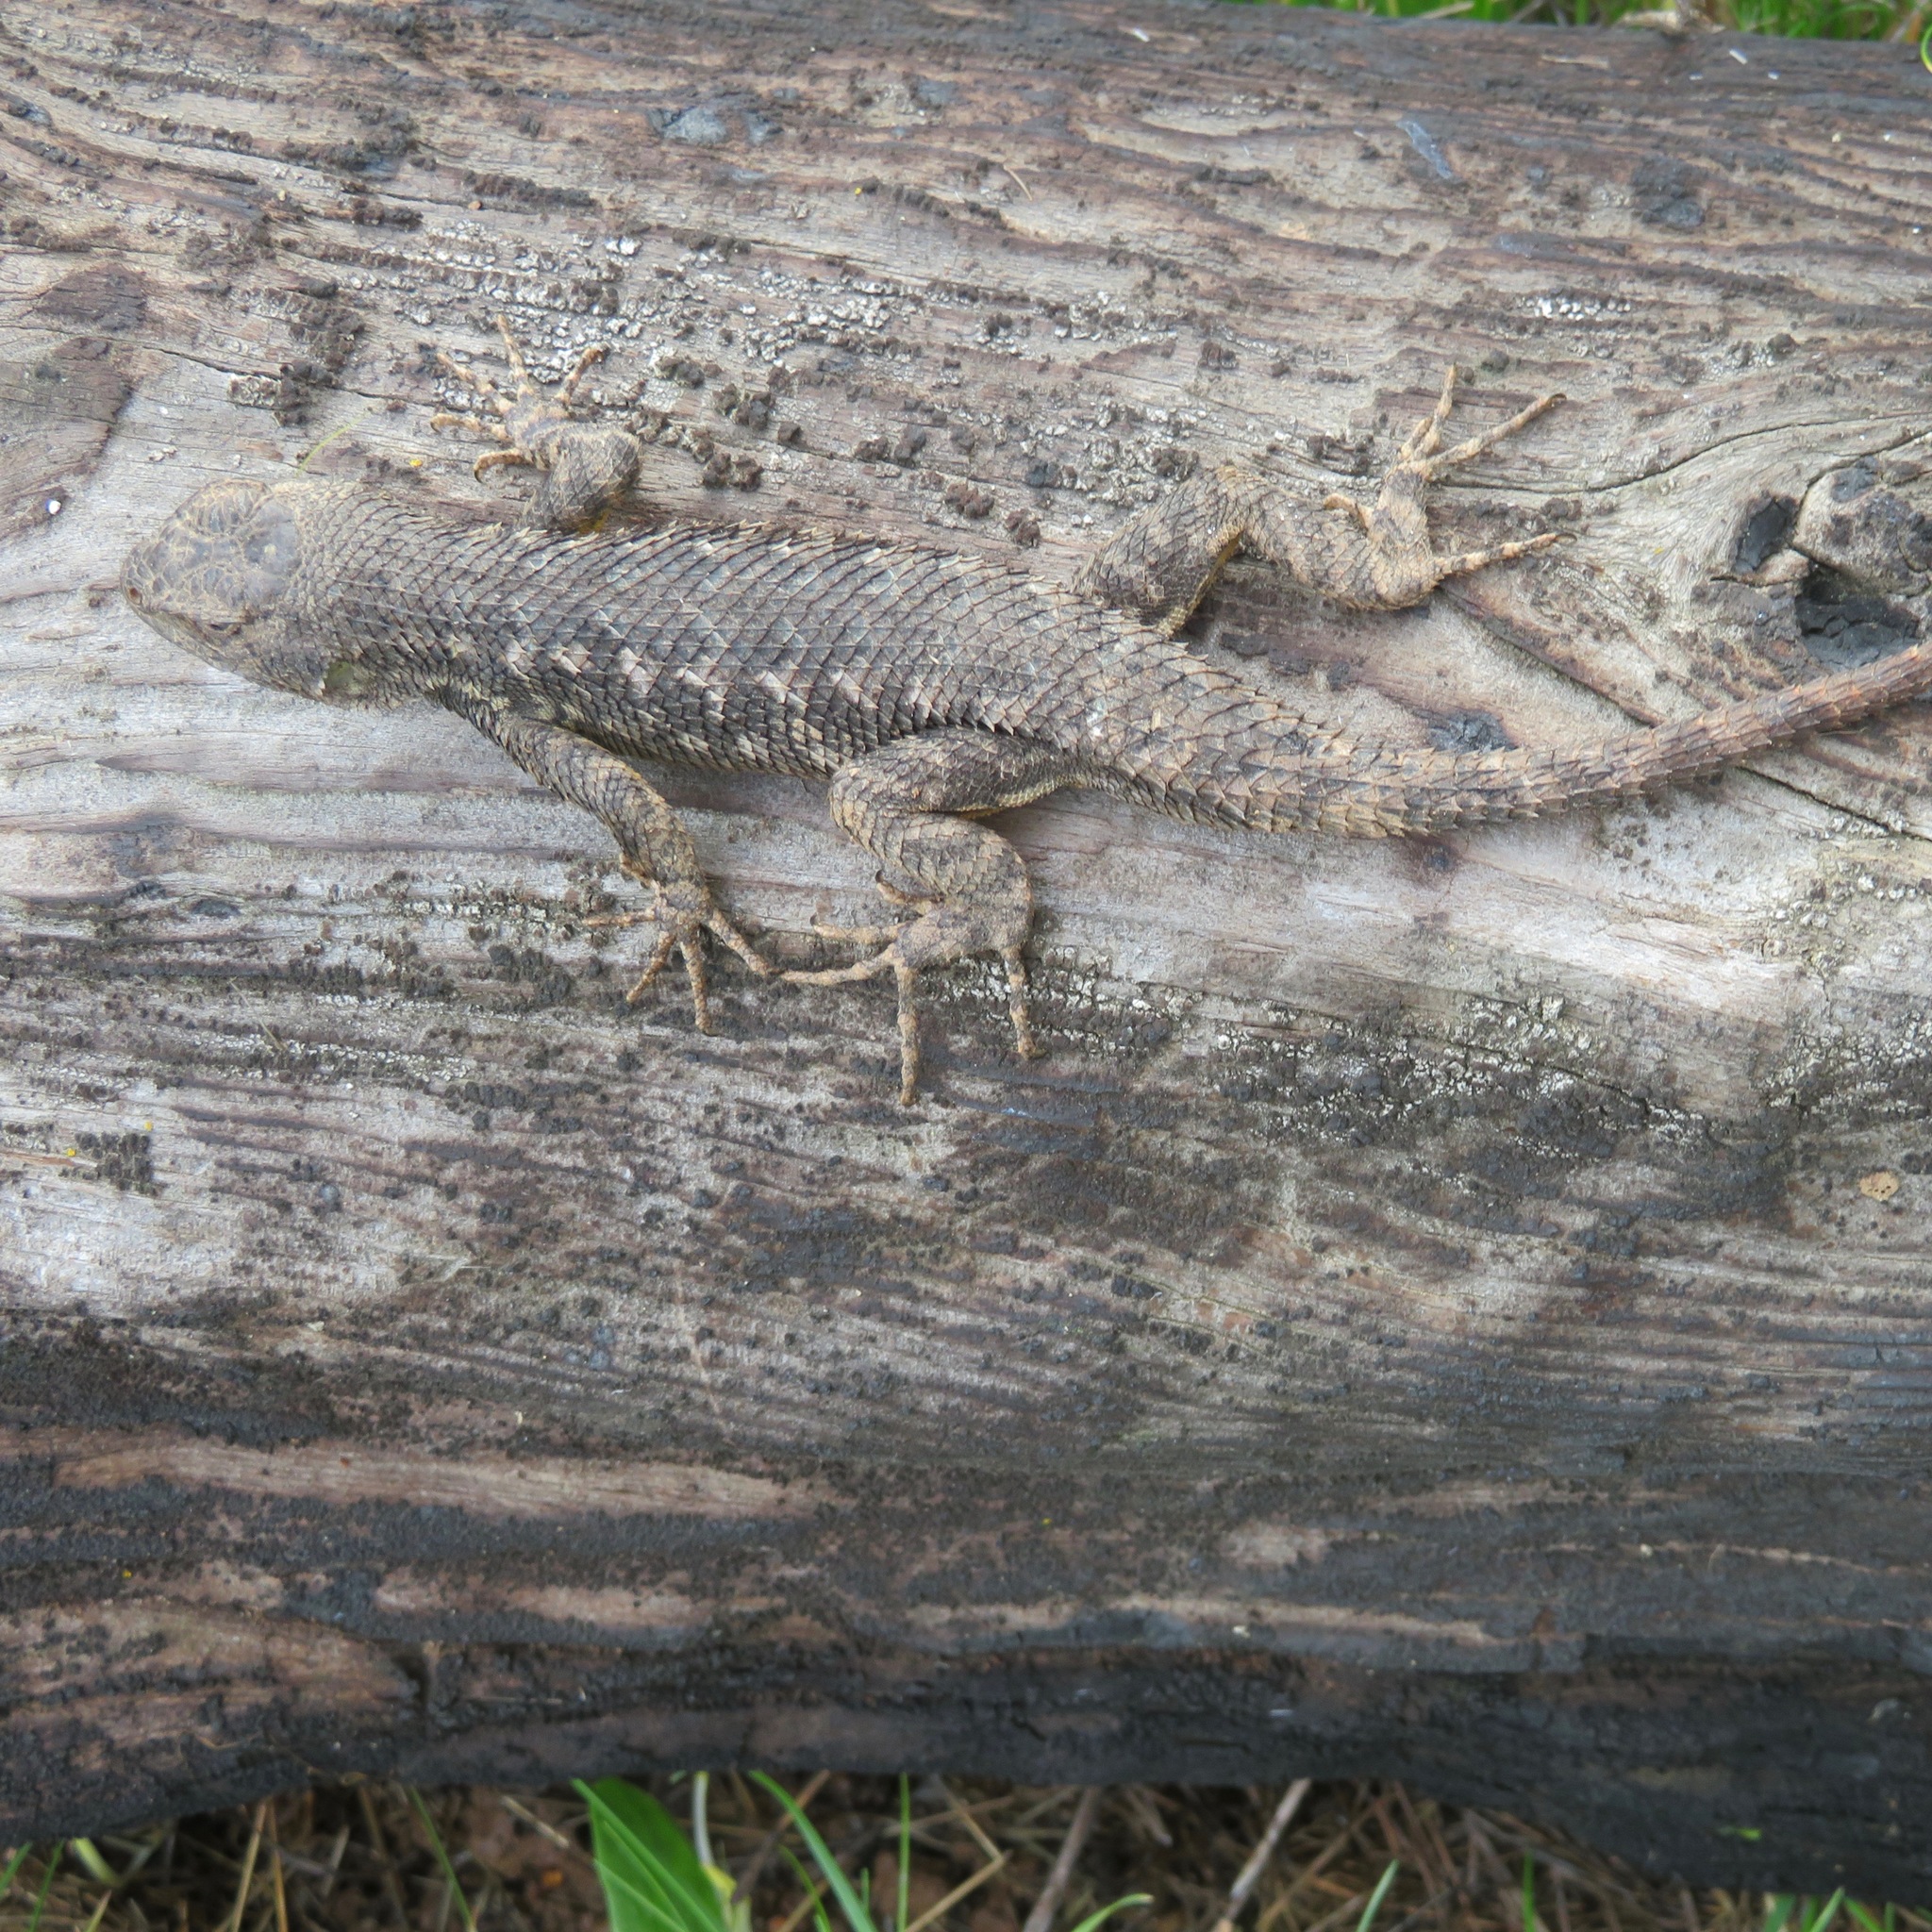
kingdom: Animalia
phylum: Chordata
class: Squamata
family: Phrynosomatidae
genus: Sceloporus
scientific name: Sceloporus occidentalis
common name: Western fence lizard
